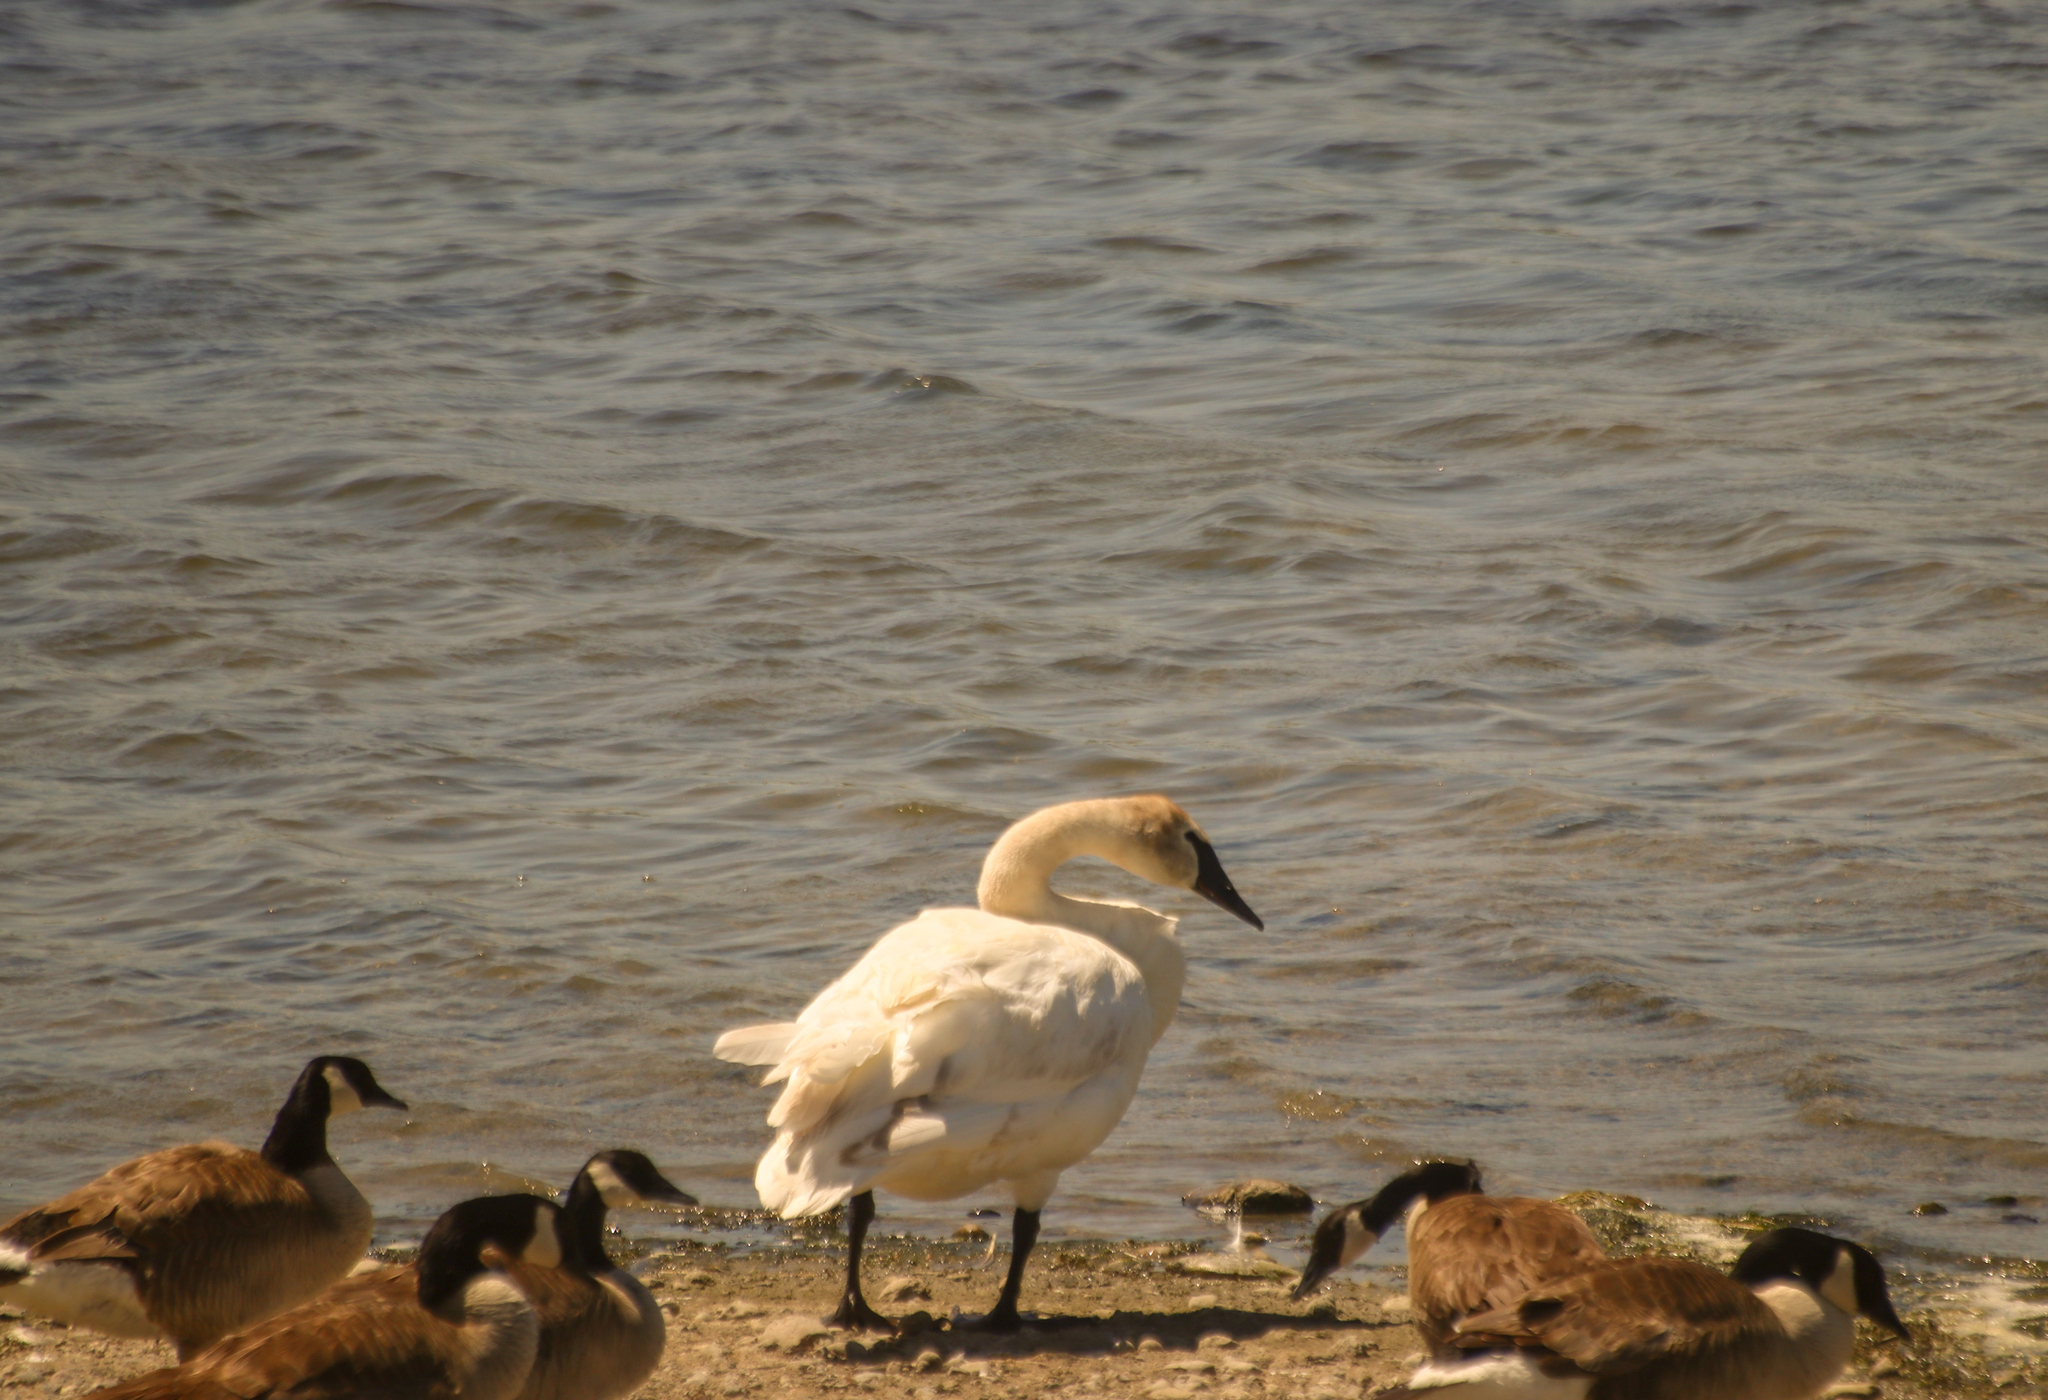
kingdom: Animalia
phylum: Chordata
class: Aves
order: Anseriformes
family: Anatidae
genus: Cygnus
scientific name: Cygnus buccinator
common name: Trumpeter swan
